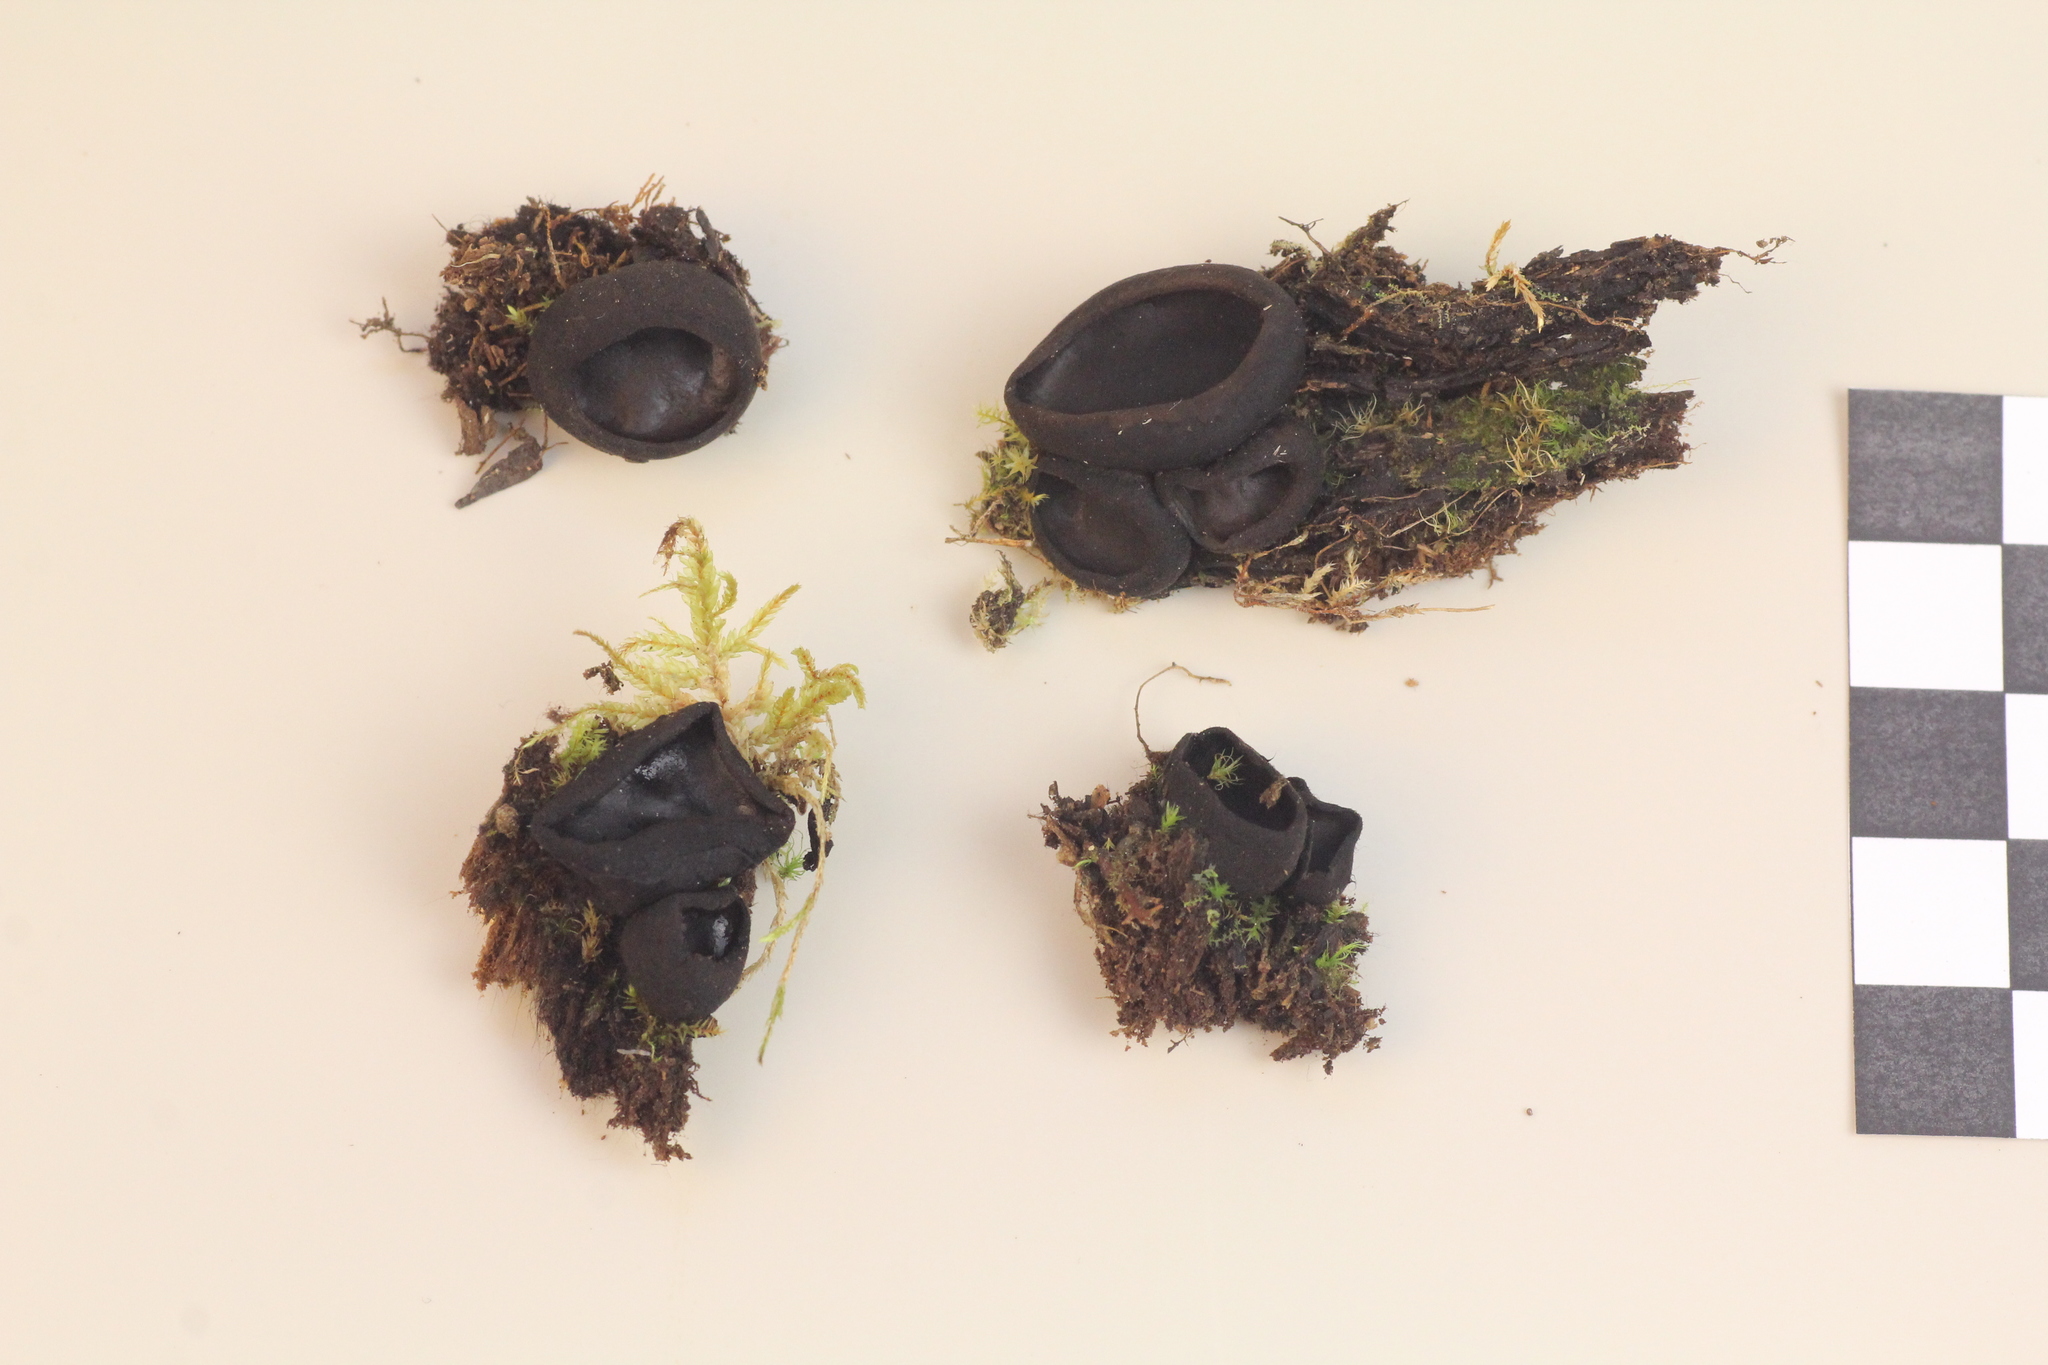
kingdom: Fungi
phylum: Ascomycota
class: Pezizomycetes
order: Pezizales
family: Sarcosomataceae
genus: Pseudoplectania
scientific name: Pseudoplectania nigrella
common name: Ebony cup
